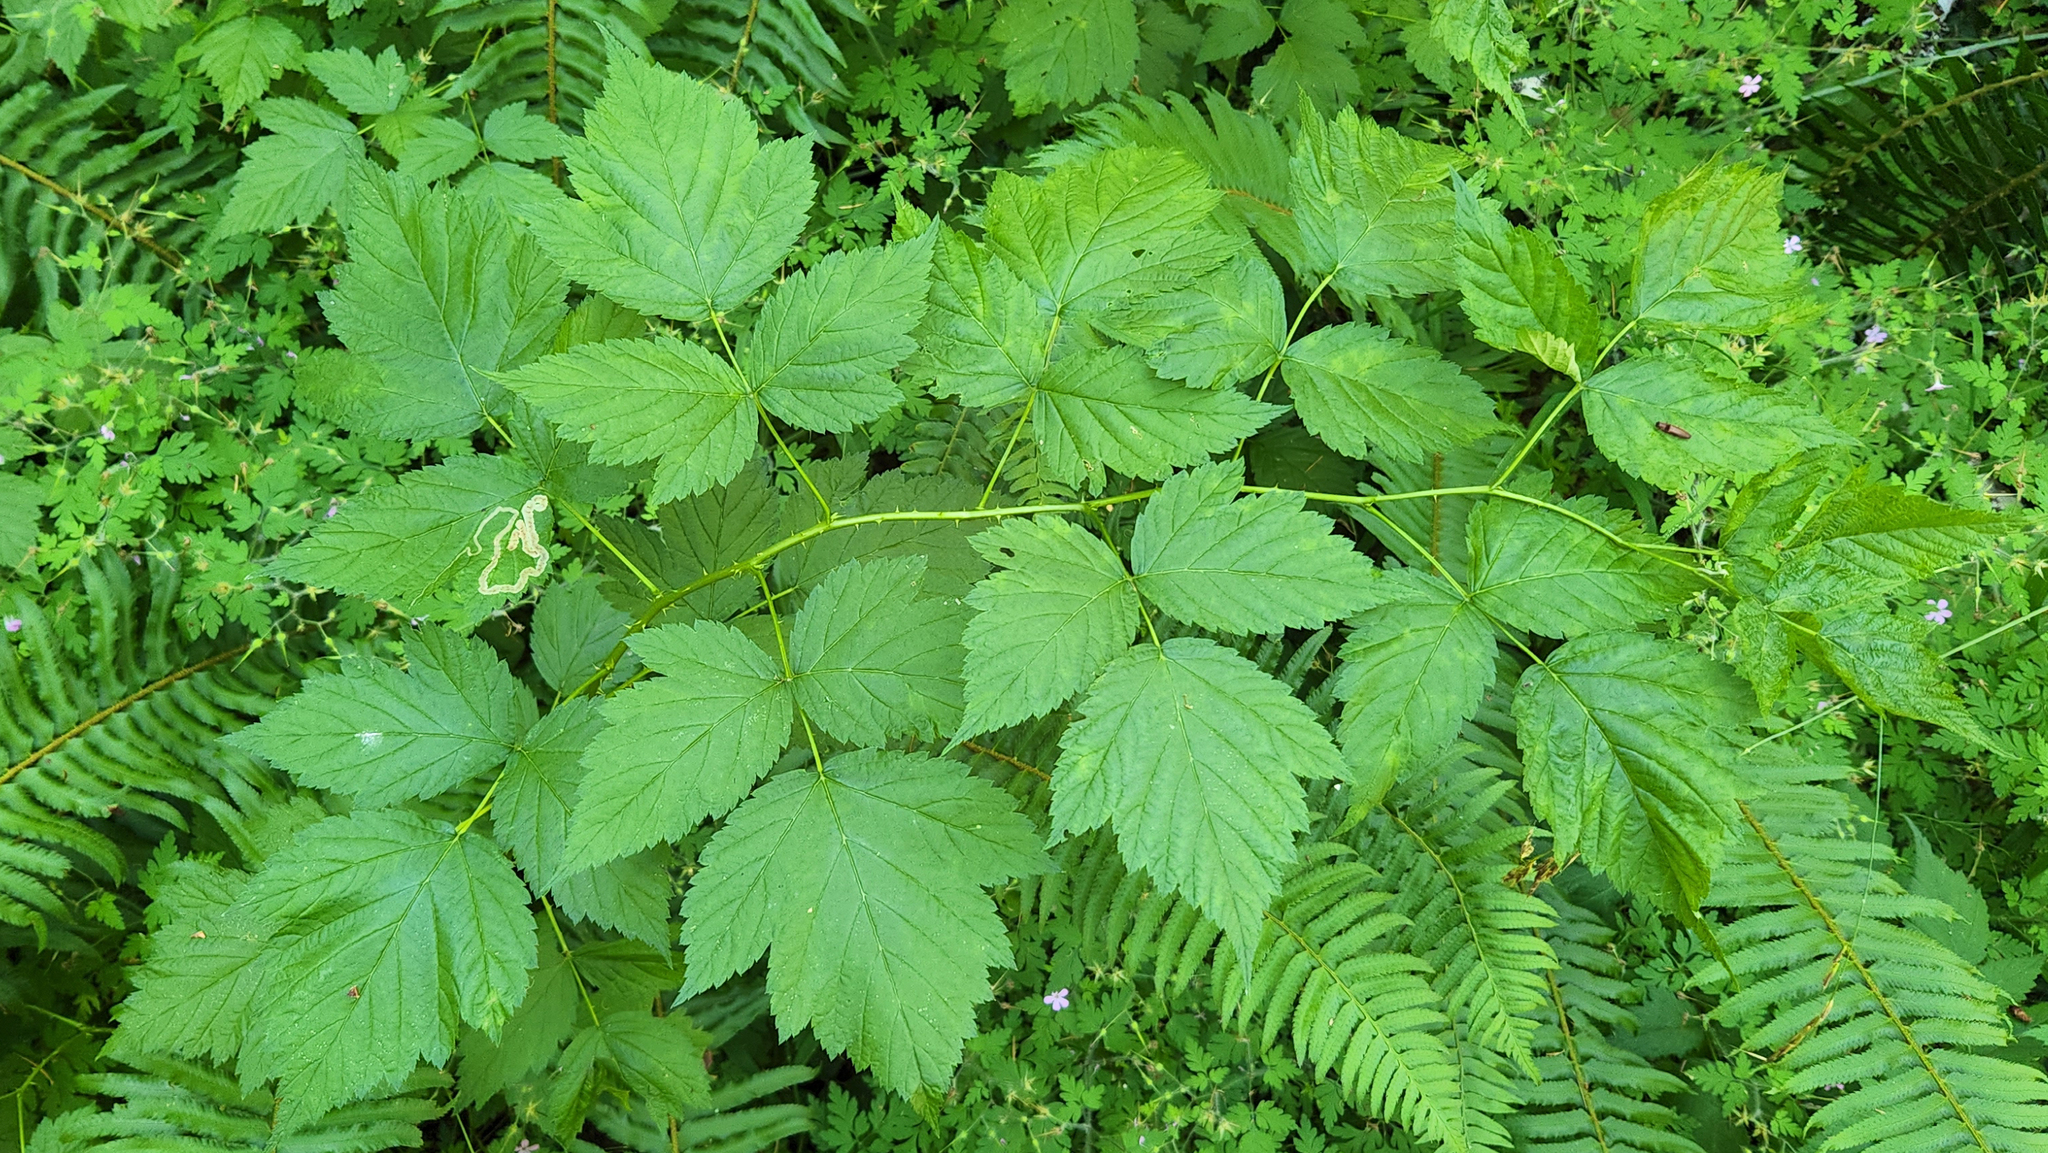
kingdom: Plantae
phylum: Tracheophyta
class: Magnoliopsida
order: Rosales
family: Rosaceae
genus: Rubus
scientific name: Rubus spectabilis
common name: Salmonberry
